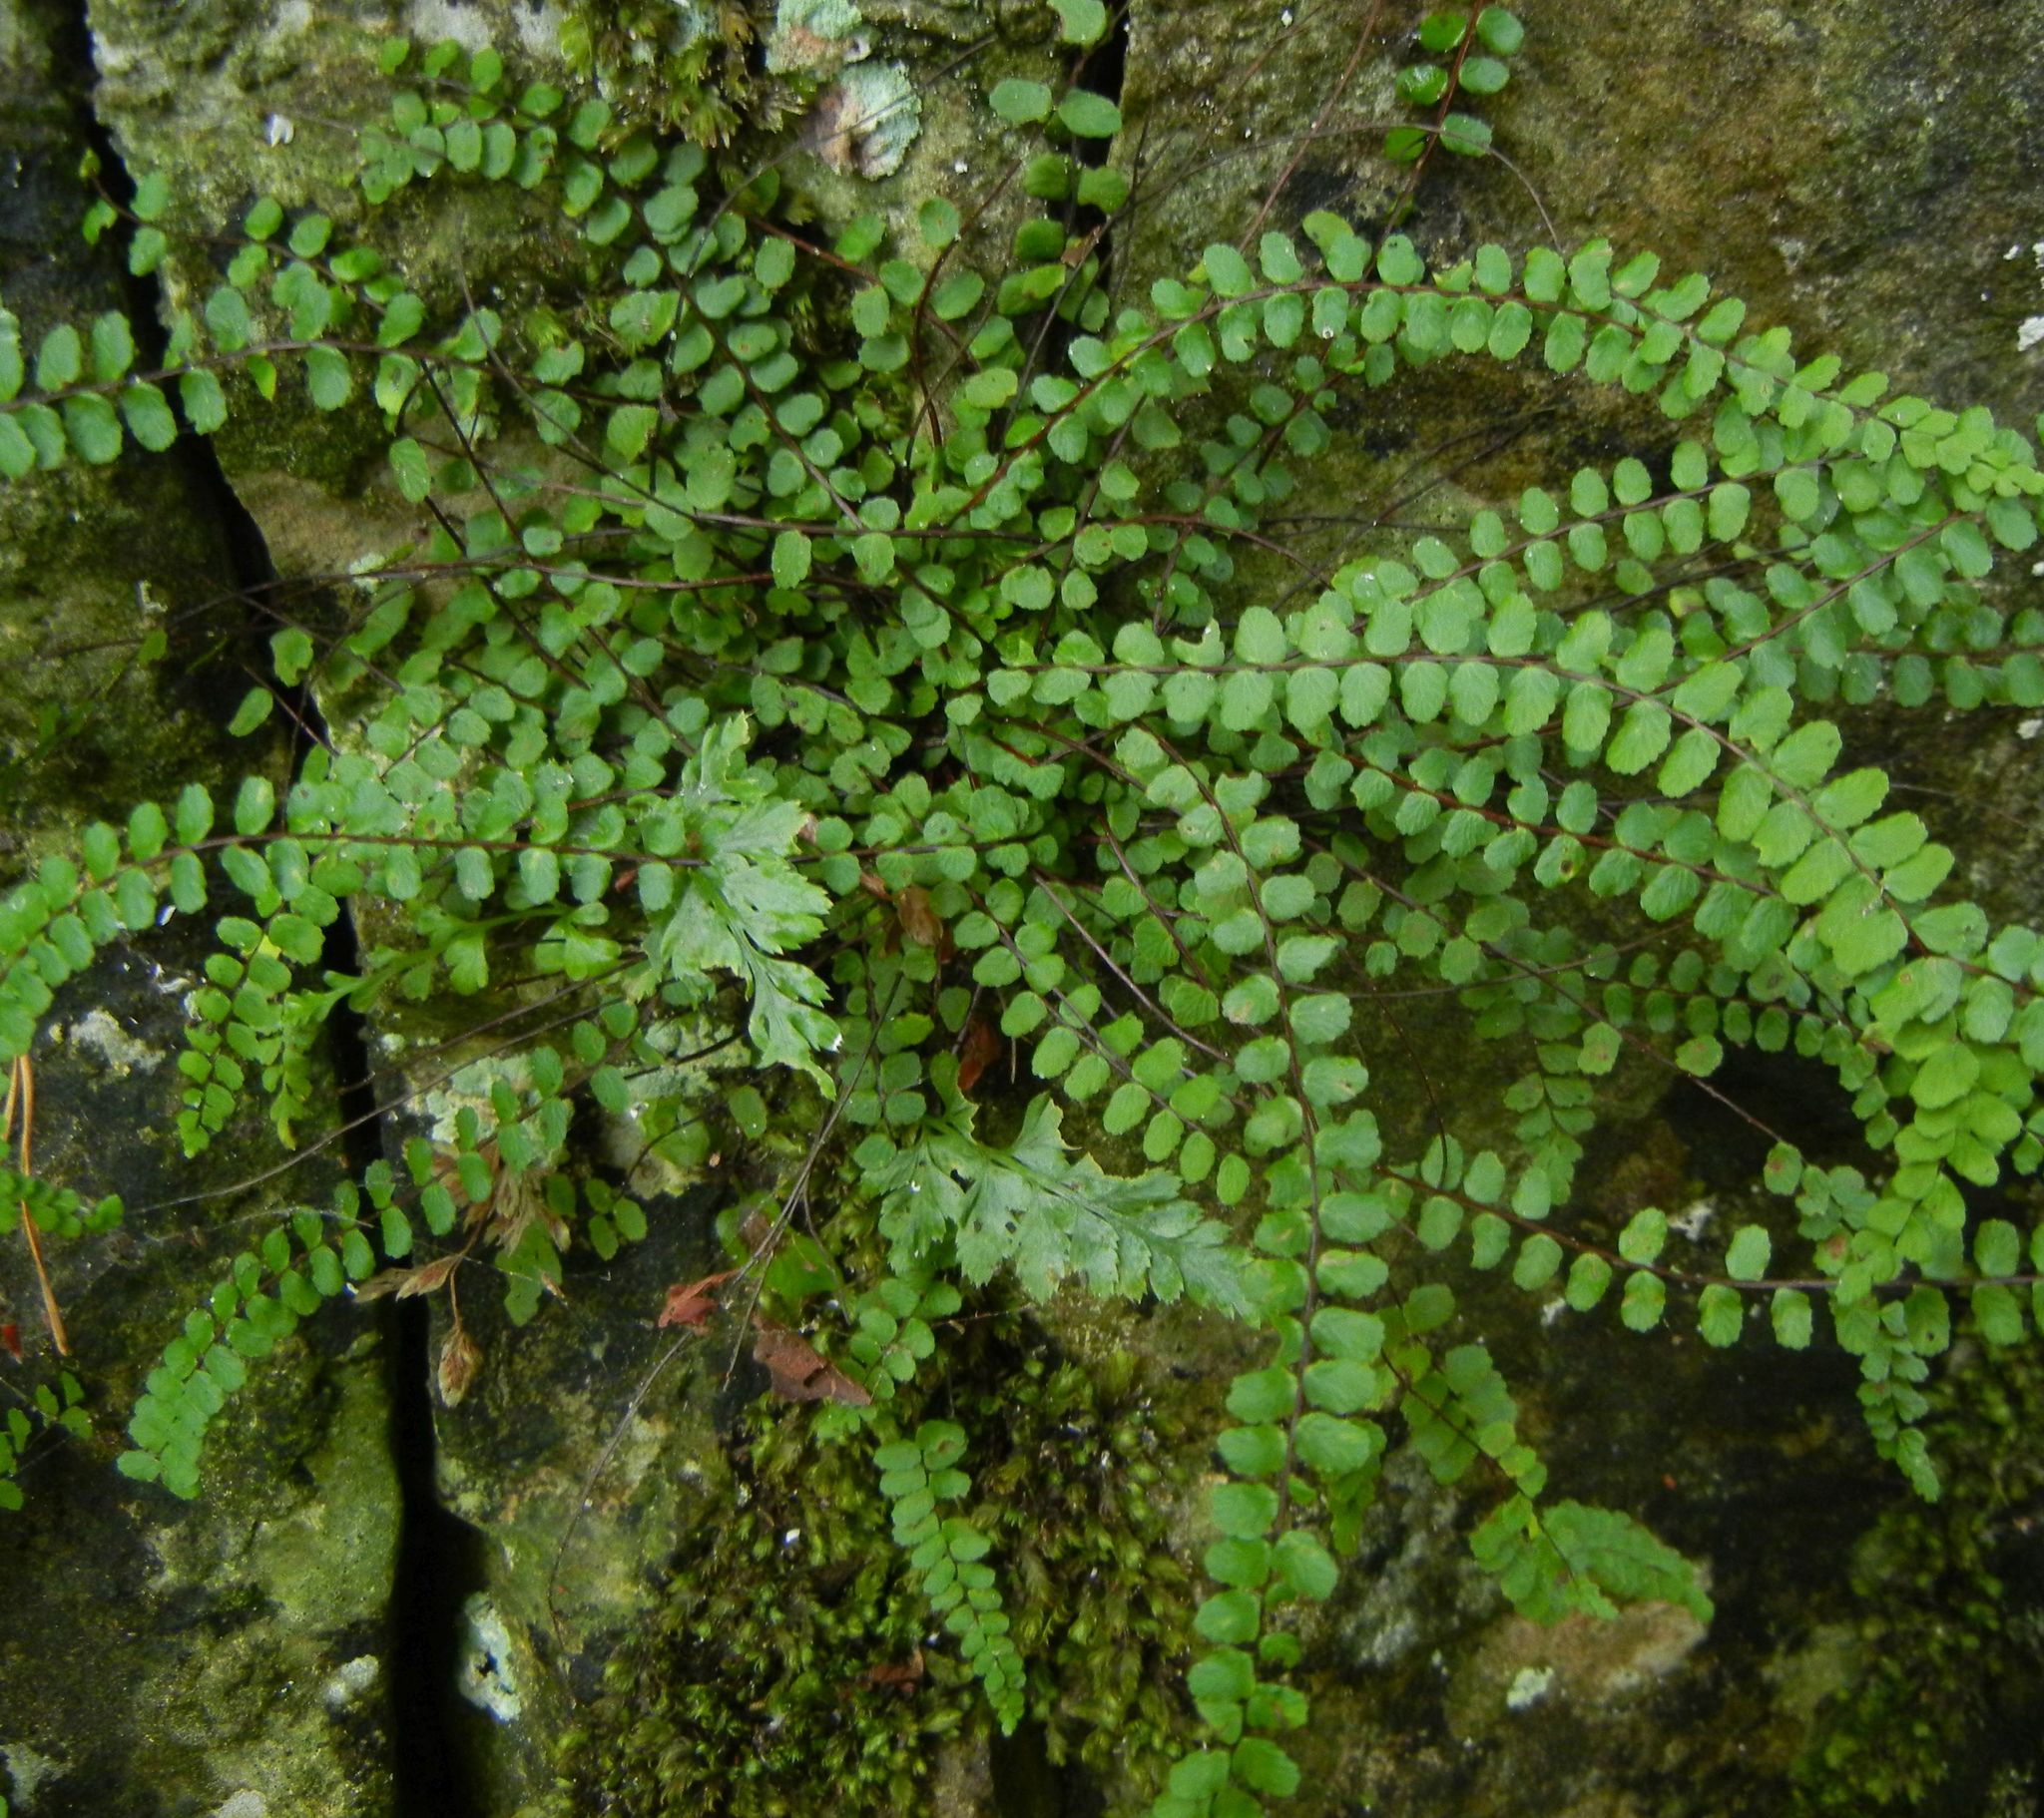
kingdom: Plantae
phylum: Tracheophyta
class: Polypodiopsida
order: Polypodiales
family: Aspleniaceae
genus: Asplenium
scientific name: Asplenium trichomanes
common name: Maidenhair spleenwort
